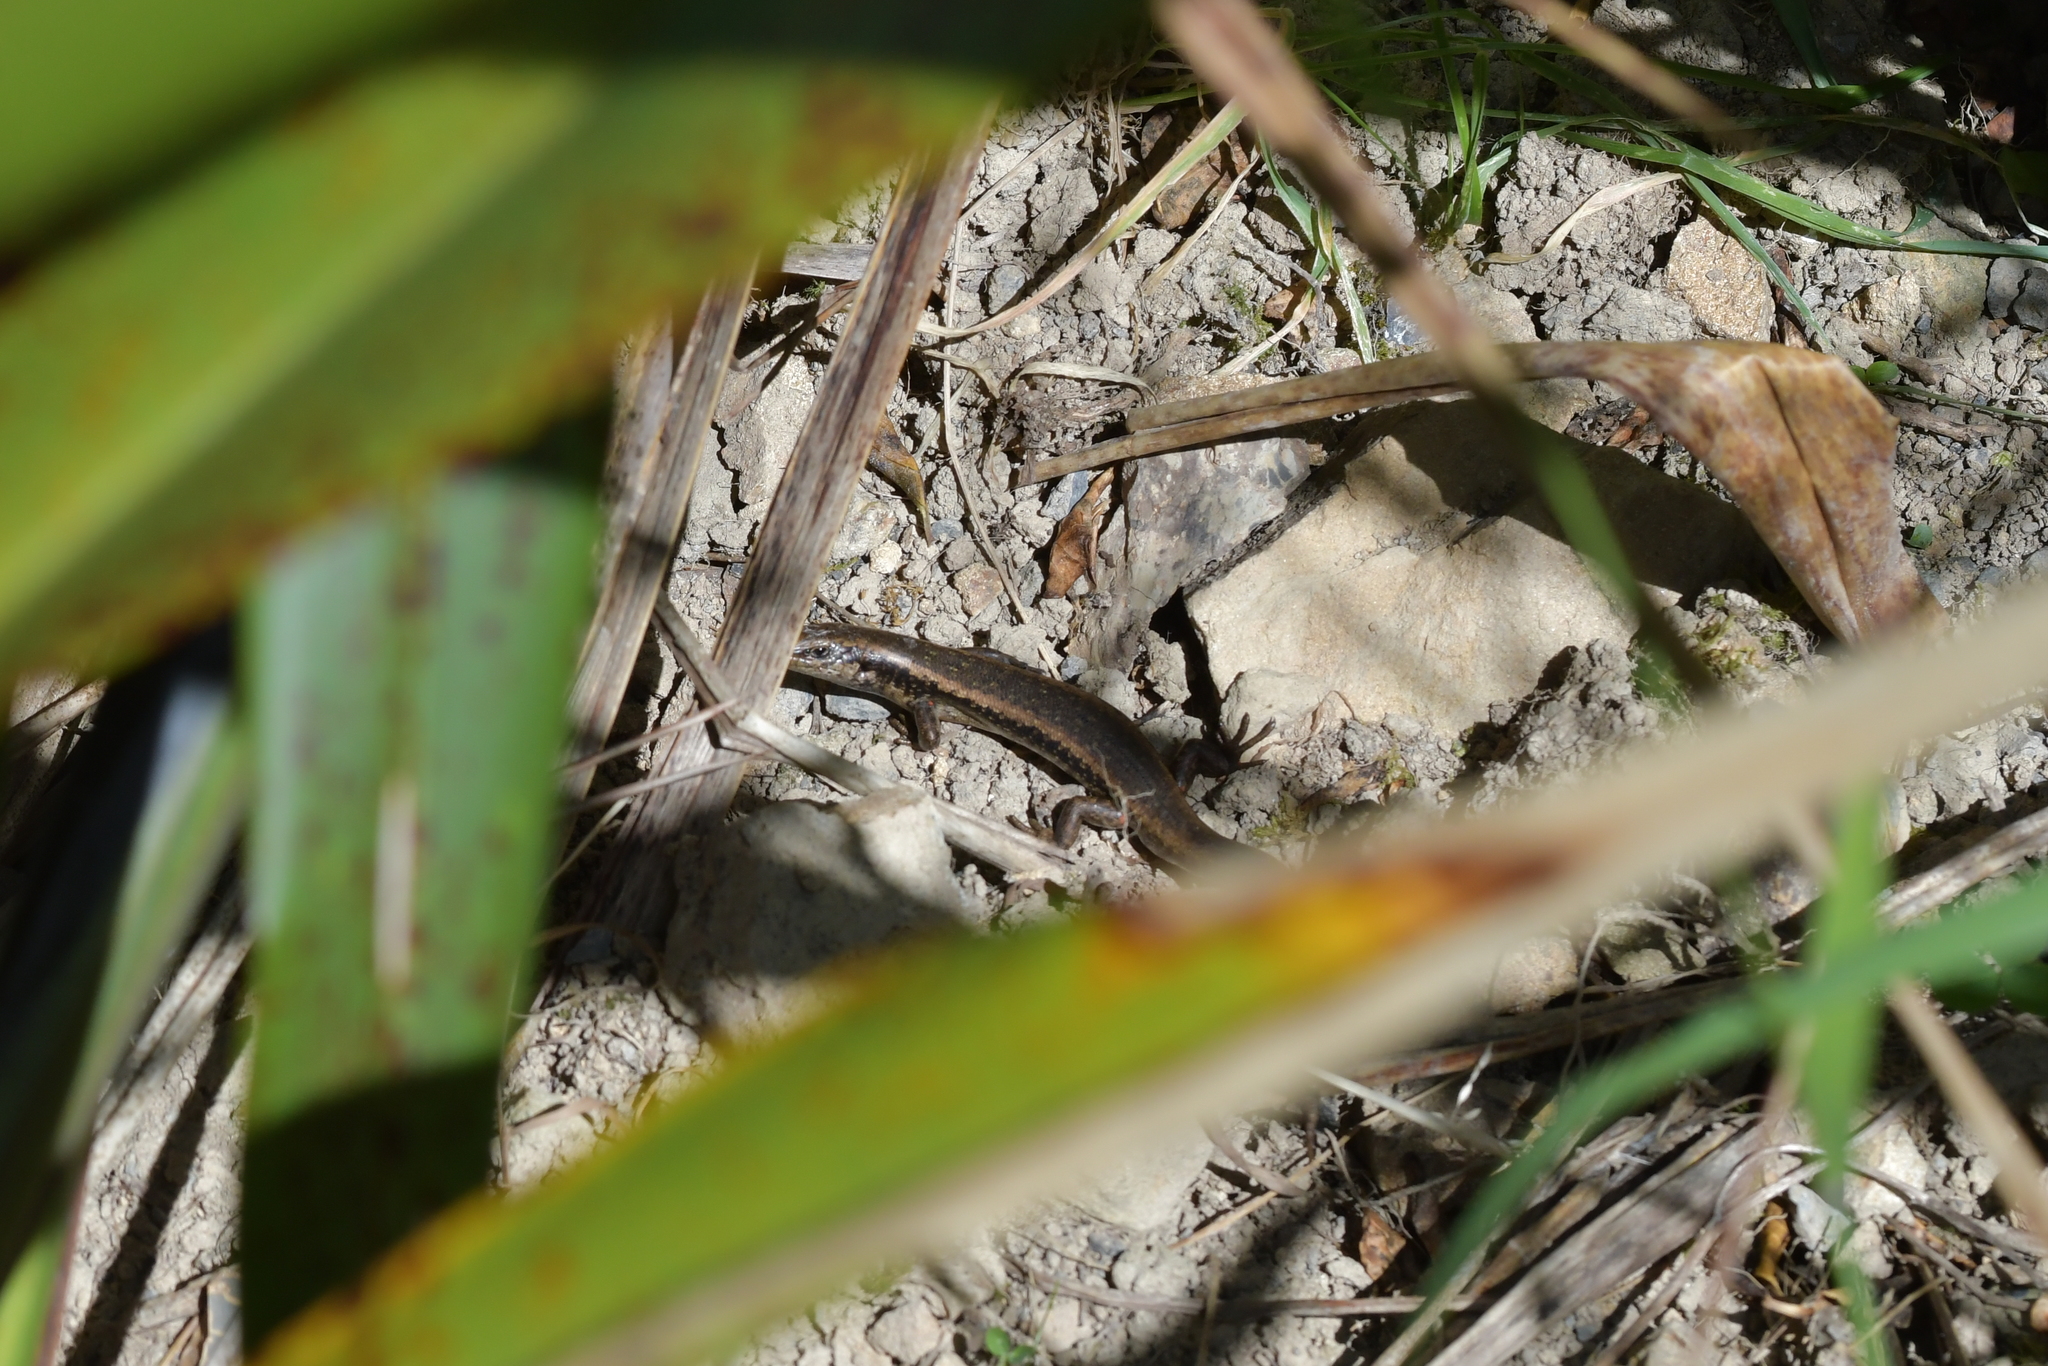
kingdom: Animalia
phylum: Chordata
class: Squamata
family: Scincidae
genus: Oligosoma
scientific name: Oligosoma kokowai
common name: Northern spotted skink
